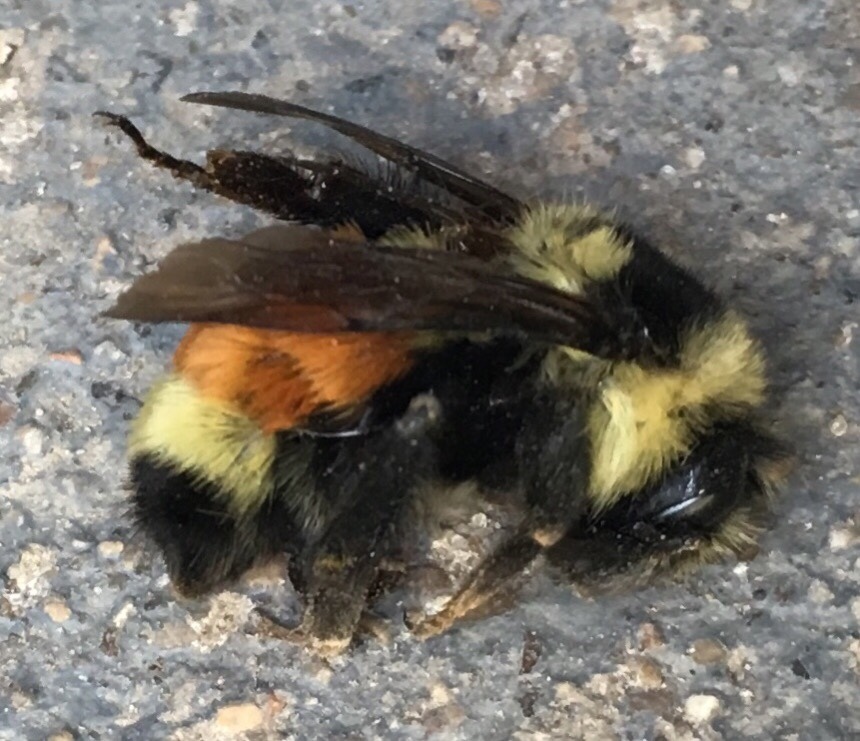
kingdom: Animalia
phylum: Arthropoda
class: Insecta
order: Hymenoptera
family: Apidae
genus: Bombus
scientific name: Bombus ternarius
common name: Tri-colored bumble bee
